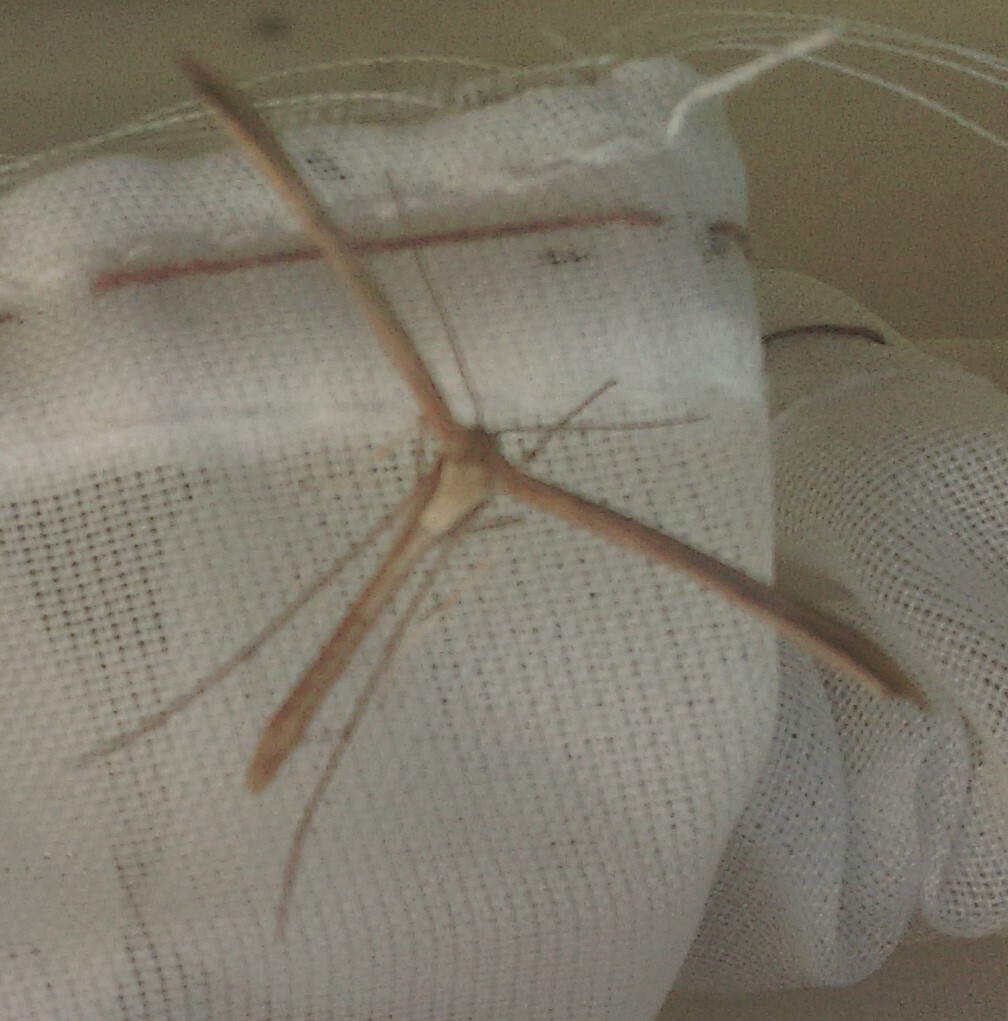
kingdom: Animalia
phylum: Arthropoda
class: Insecta
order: Lepidoptera
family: Pterophoridae
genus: Emmelina
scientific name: Emmelina monodactyla
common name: Common plume
